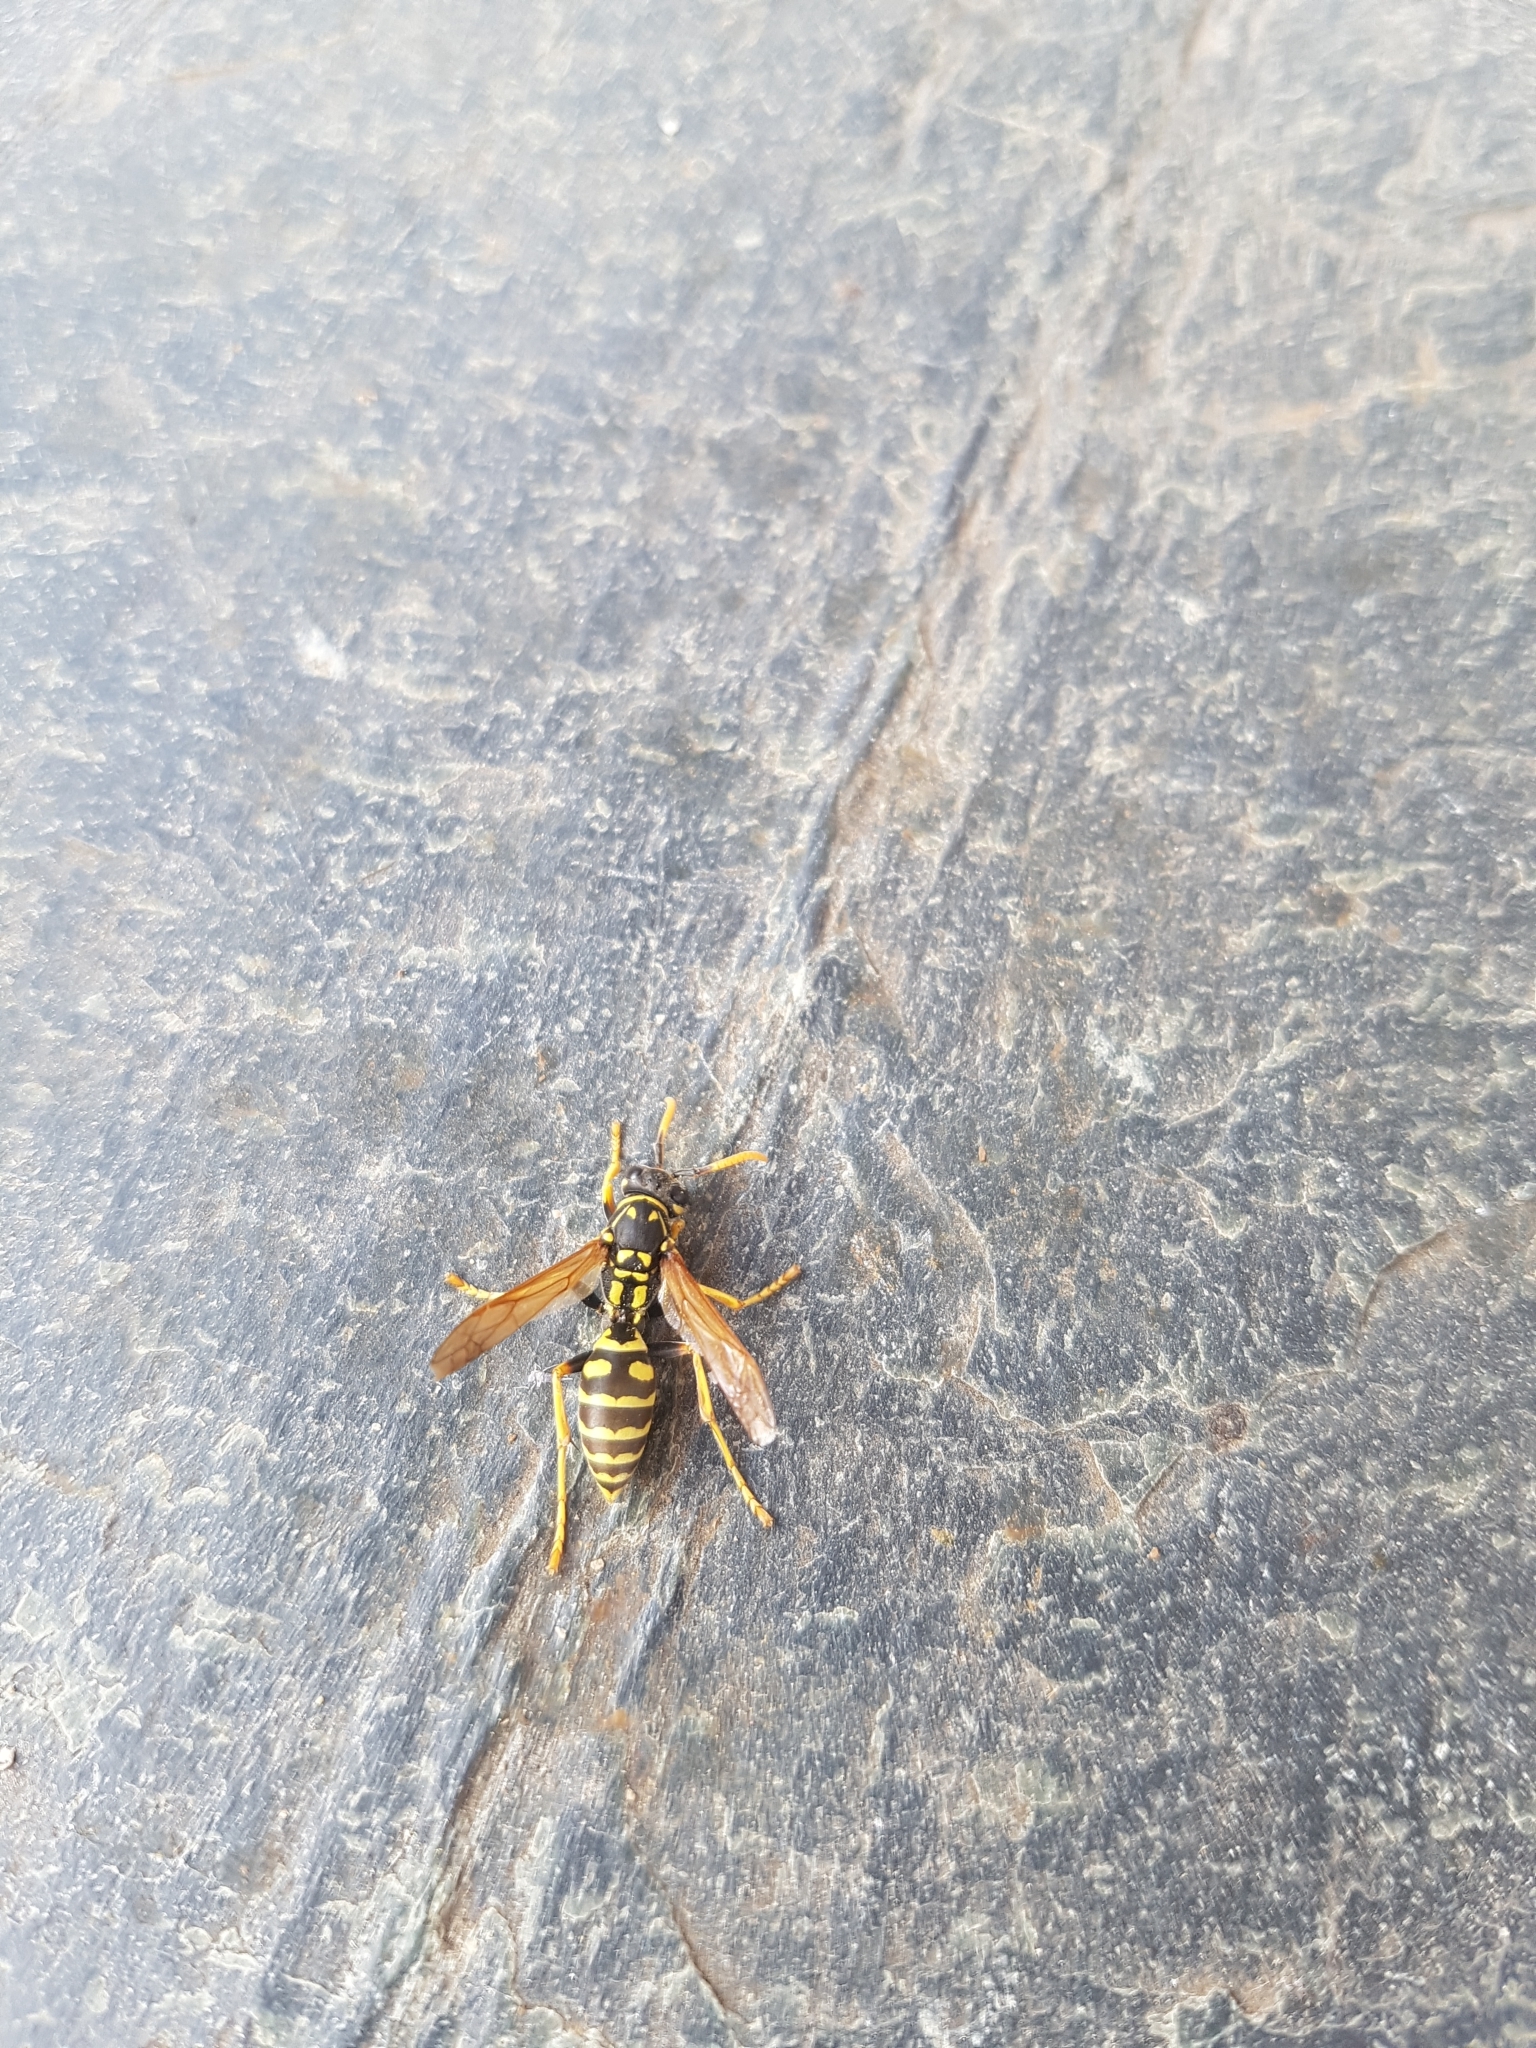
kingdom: Animalia
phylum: Arthropoda
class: Insecta
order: Hymenoptera
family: Eumenidae
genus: Polistes
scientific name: Polistes dominula
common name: Paper wasp
